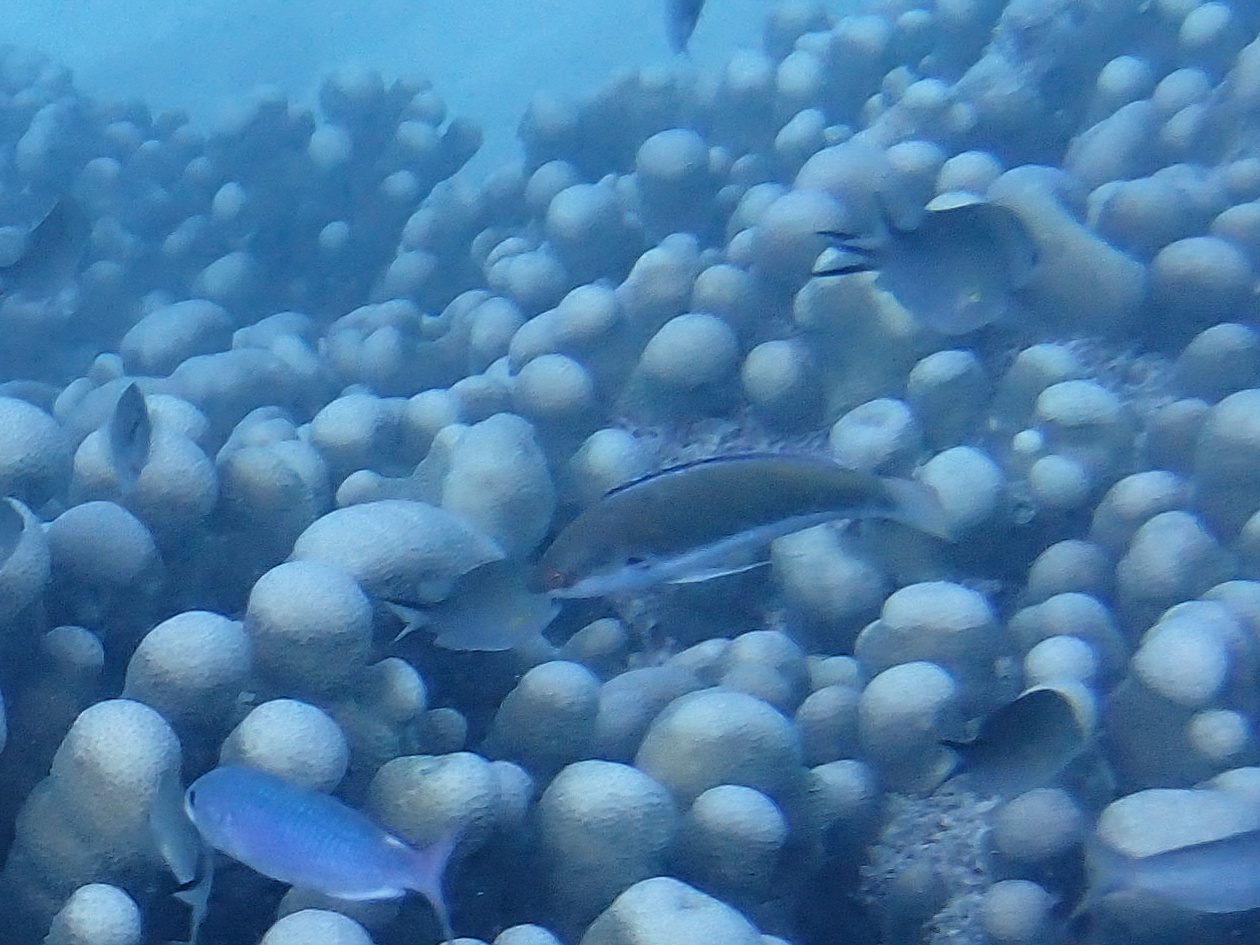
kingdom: Animalia
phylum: Chordata
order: Perciformes
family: Labridae
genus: Cirrhilabrus
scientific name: Cirrhilabrus punctatus
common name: Dotted wrasse
